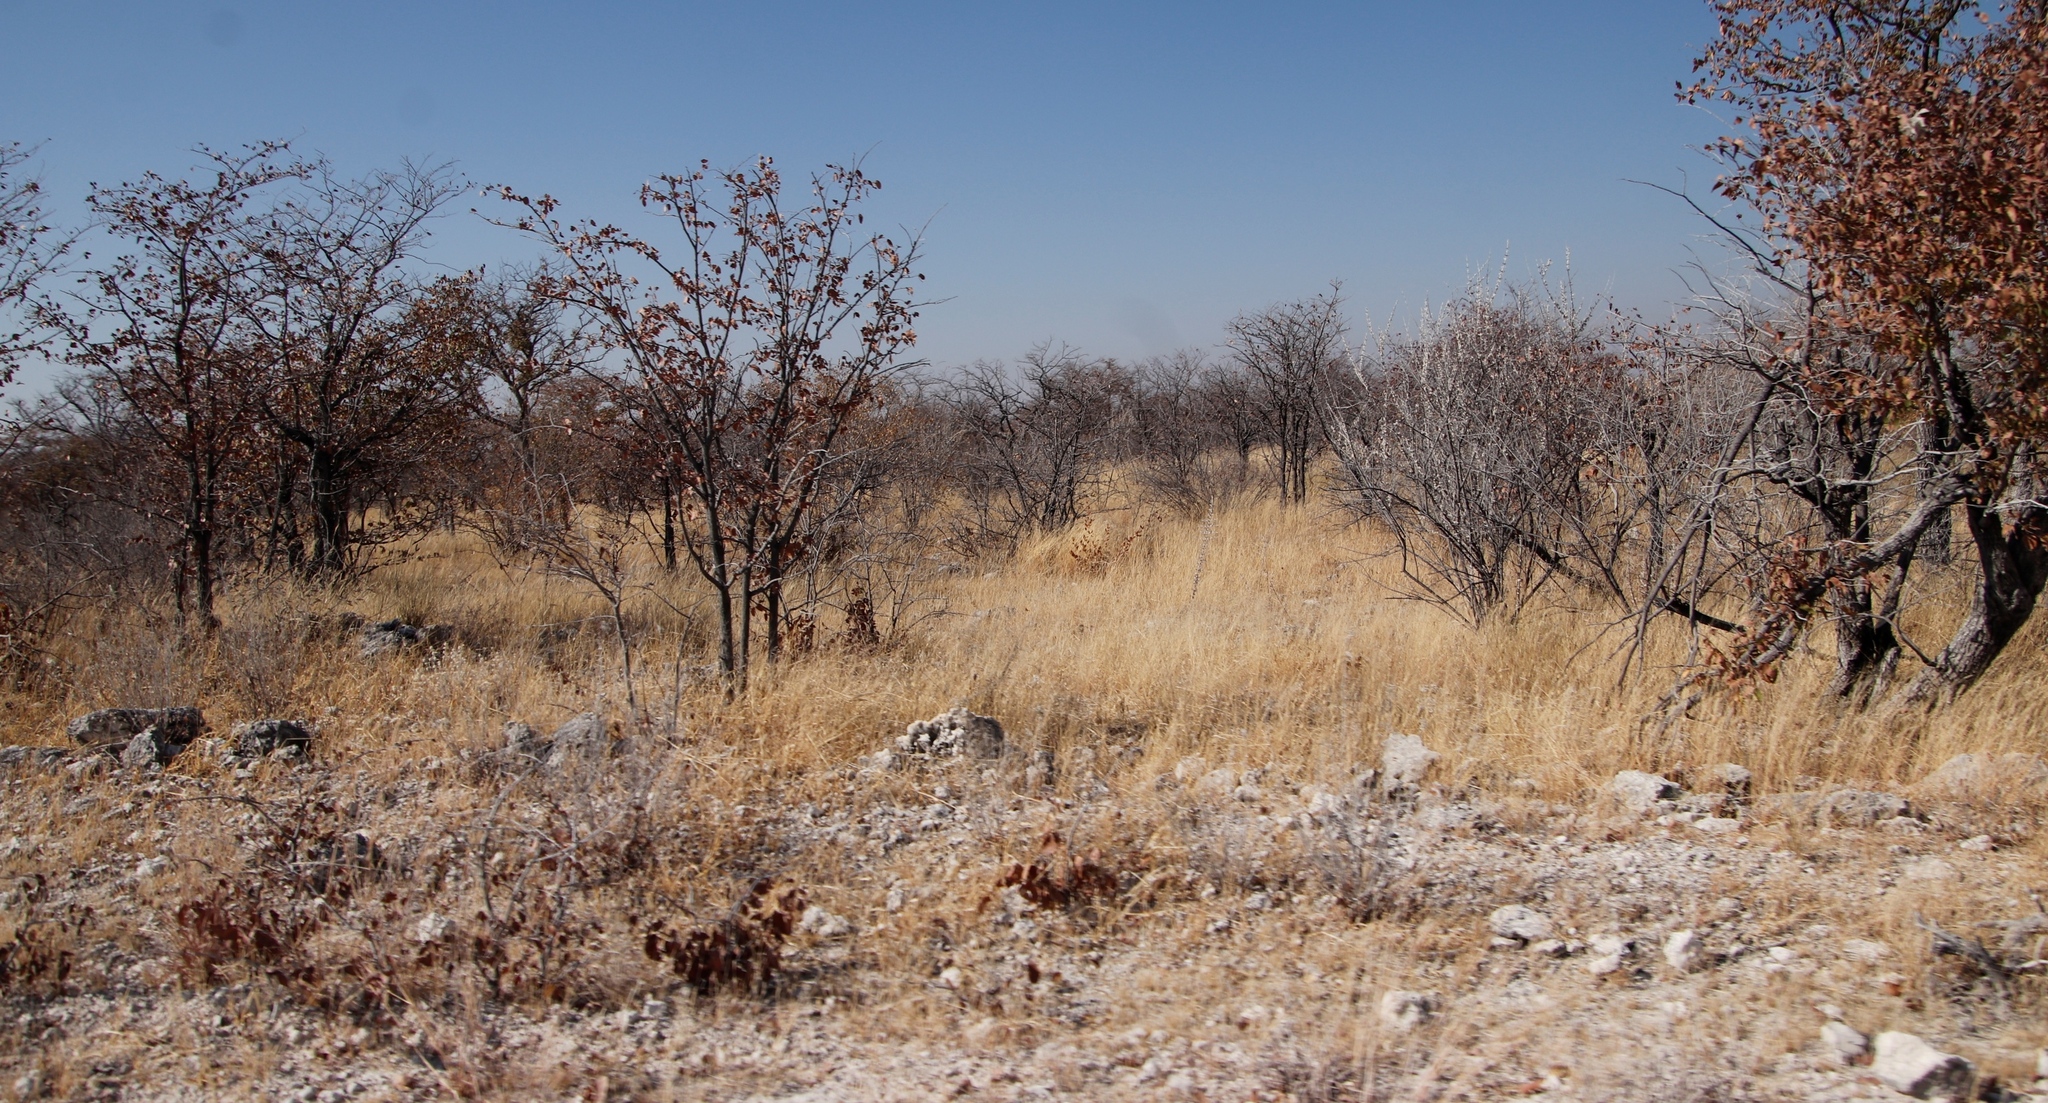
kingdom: Plantae
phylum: Tracheophyta
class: Magnoliopsida
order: Fabales
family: Fabaceae
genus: Colophospermum
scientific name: Colophospermum mopane
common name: Mopane
